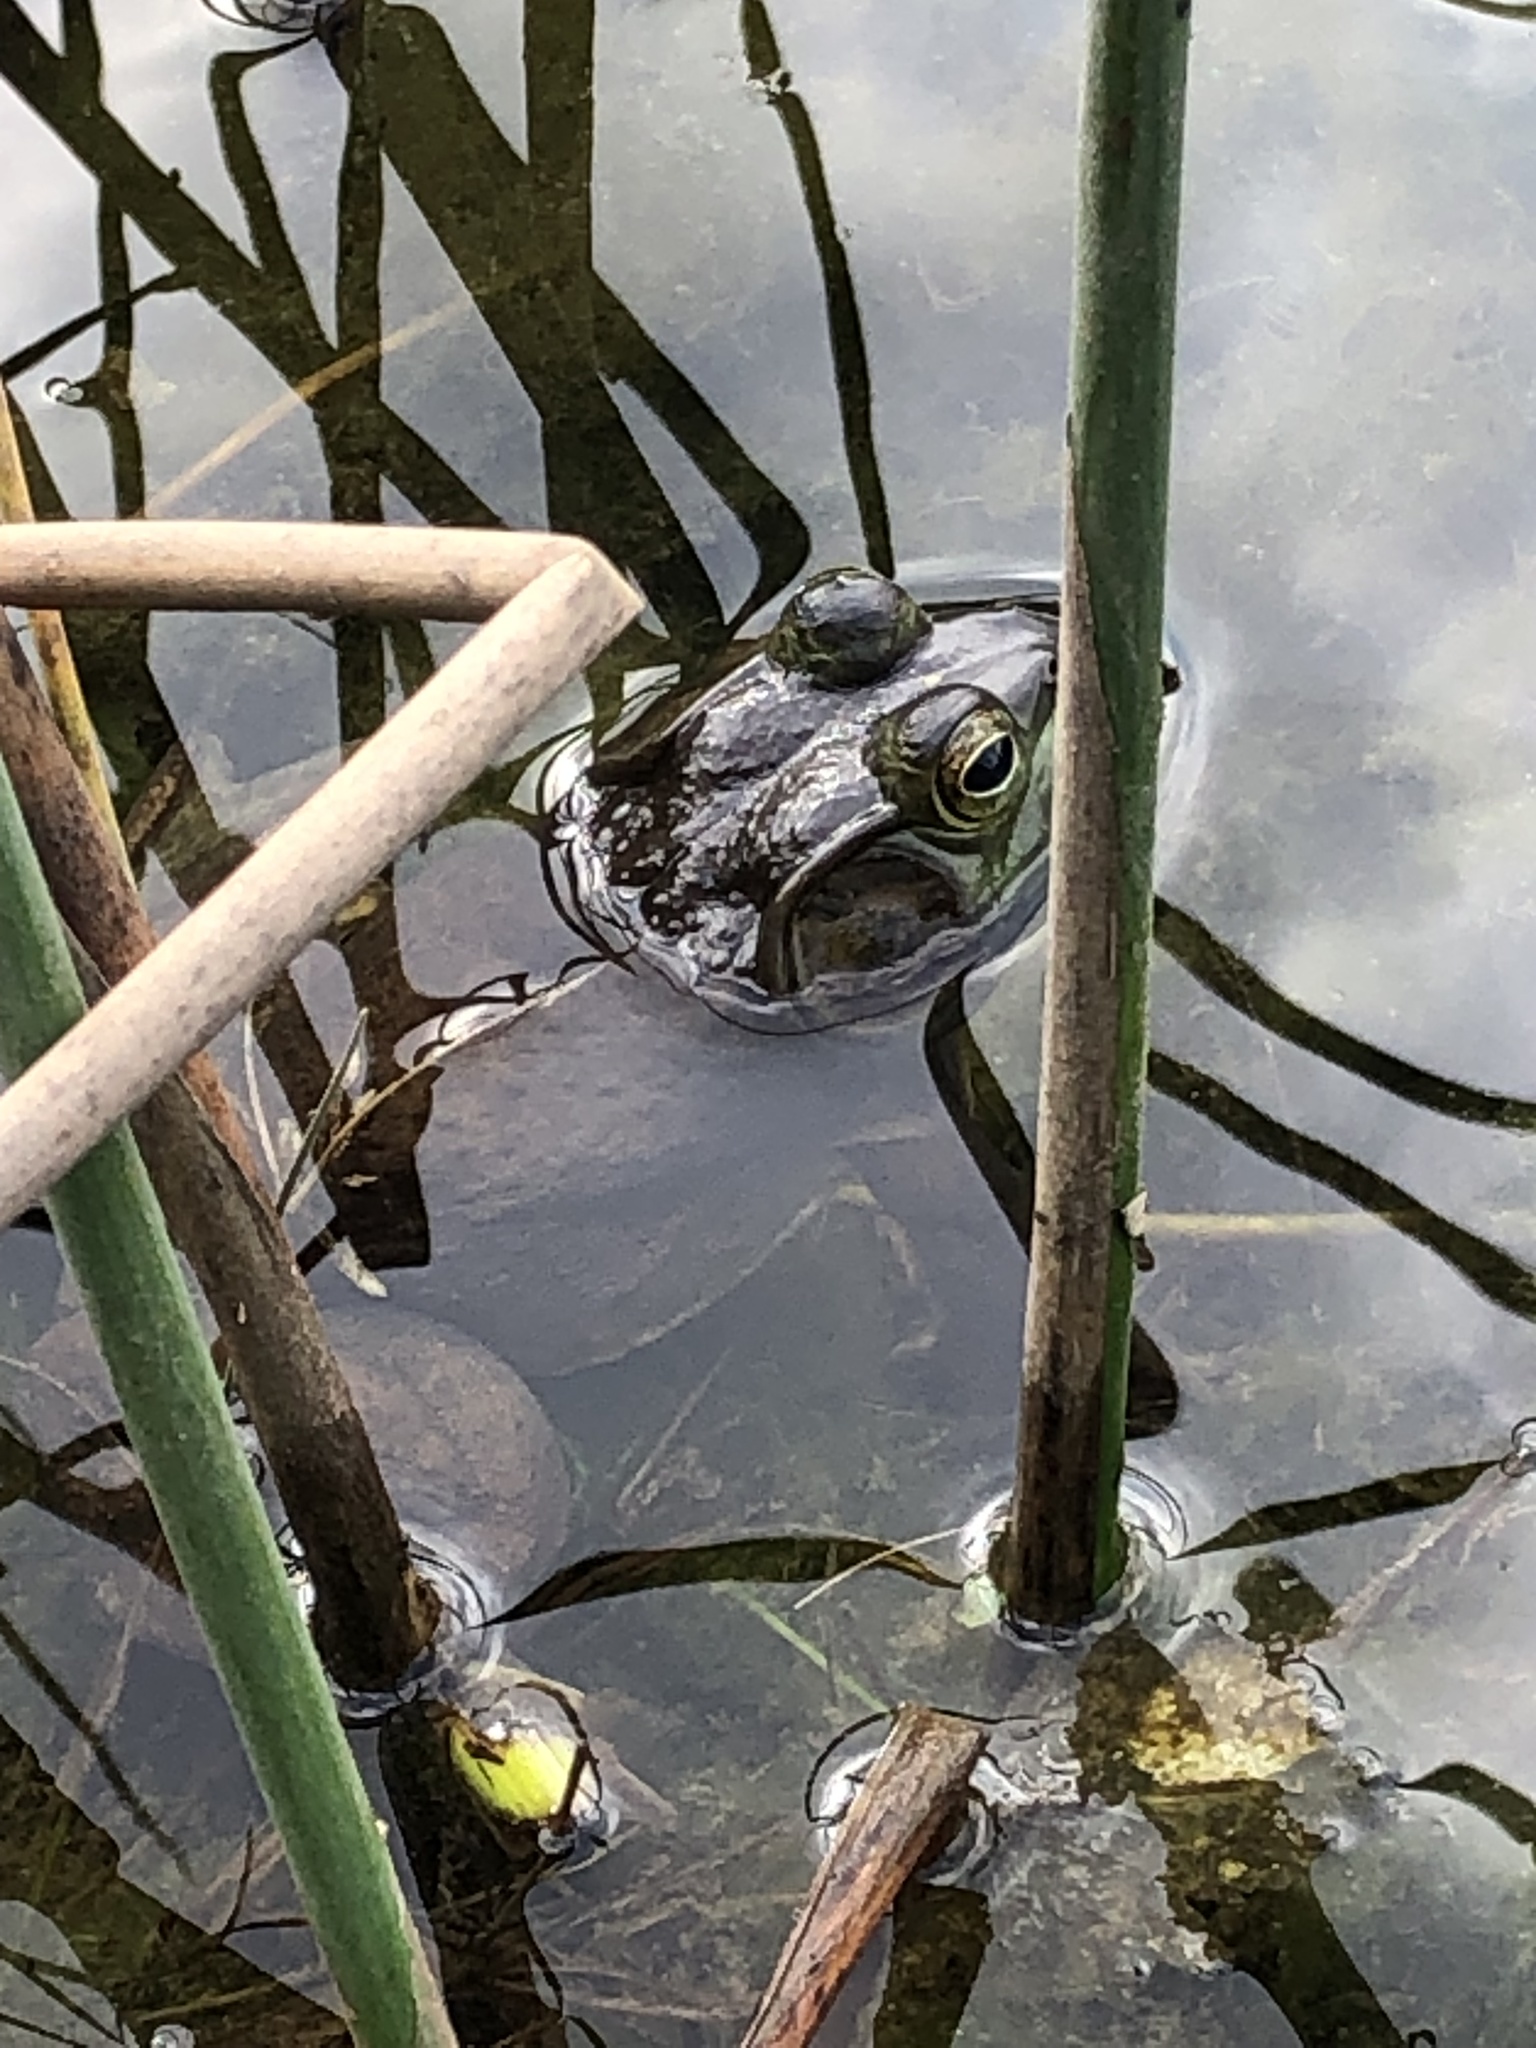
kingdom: Animalia
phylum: Chordata
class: Amphibia
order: Anura
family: Ranidae
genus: Lithobates
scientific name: Lithobates catesbeianus
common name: American bullfrog
